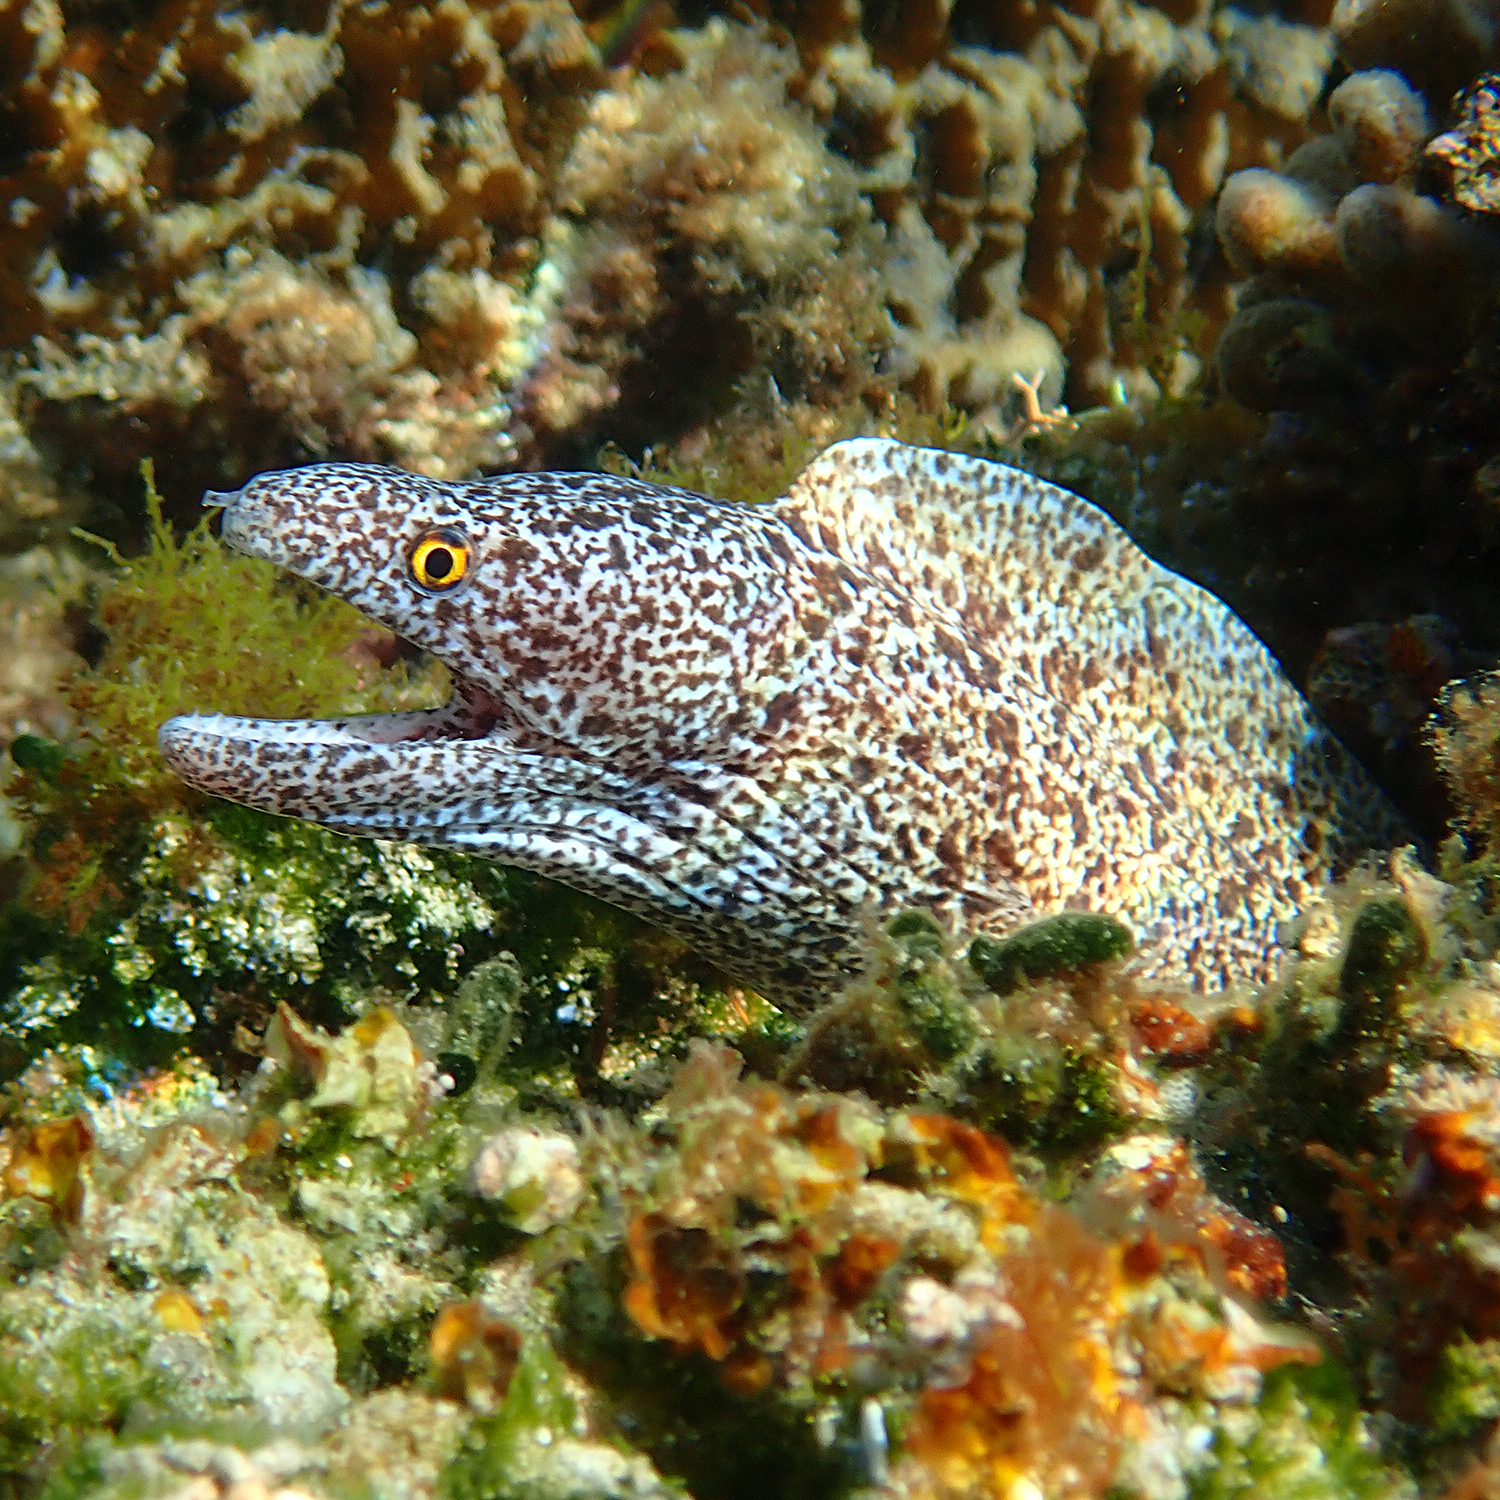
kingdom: Animalia
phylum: Chordata
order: Anguilliformes
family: Muraenidae
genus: Gymnothorax
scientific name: Gymnothorax annasona
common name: Lord howe island moray
